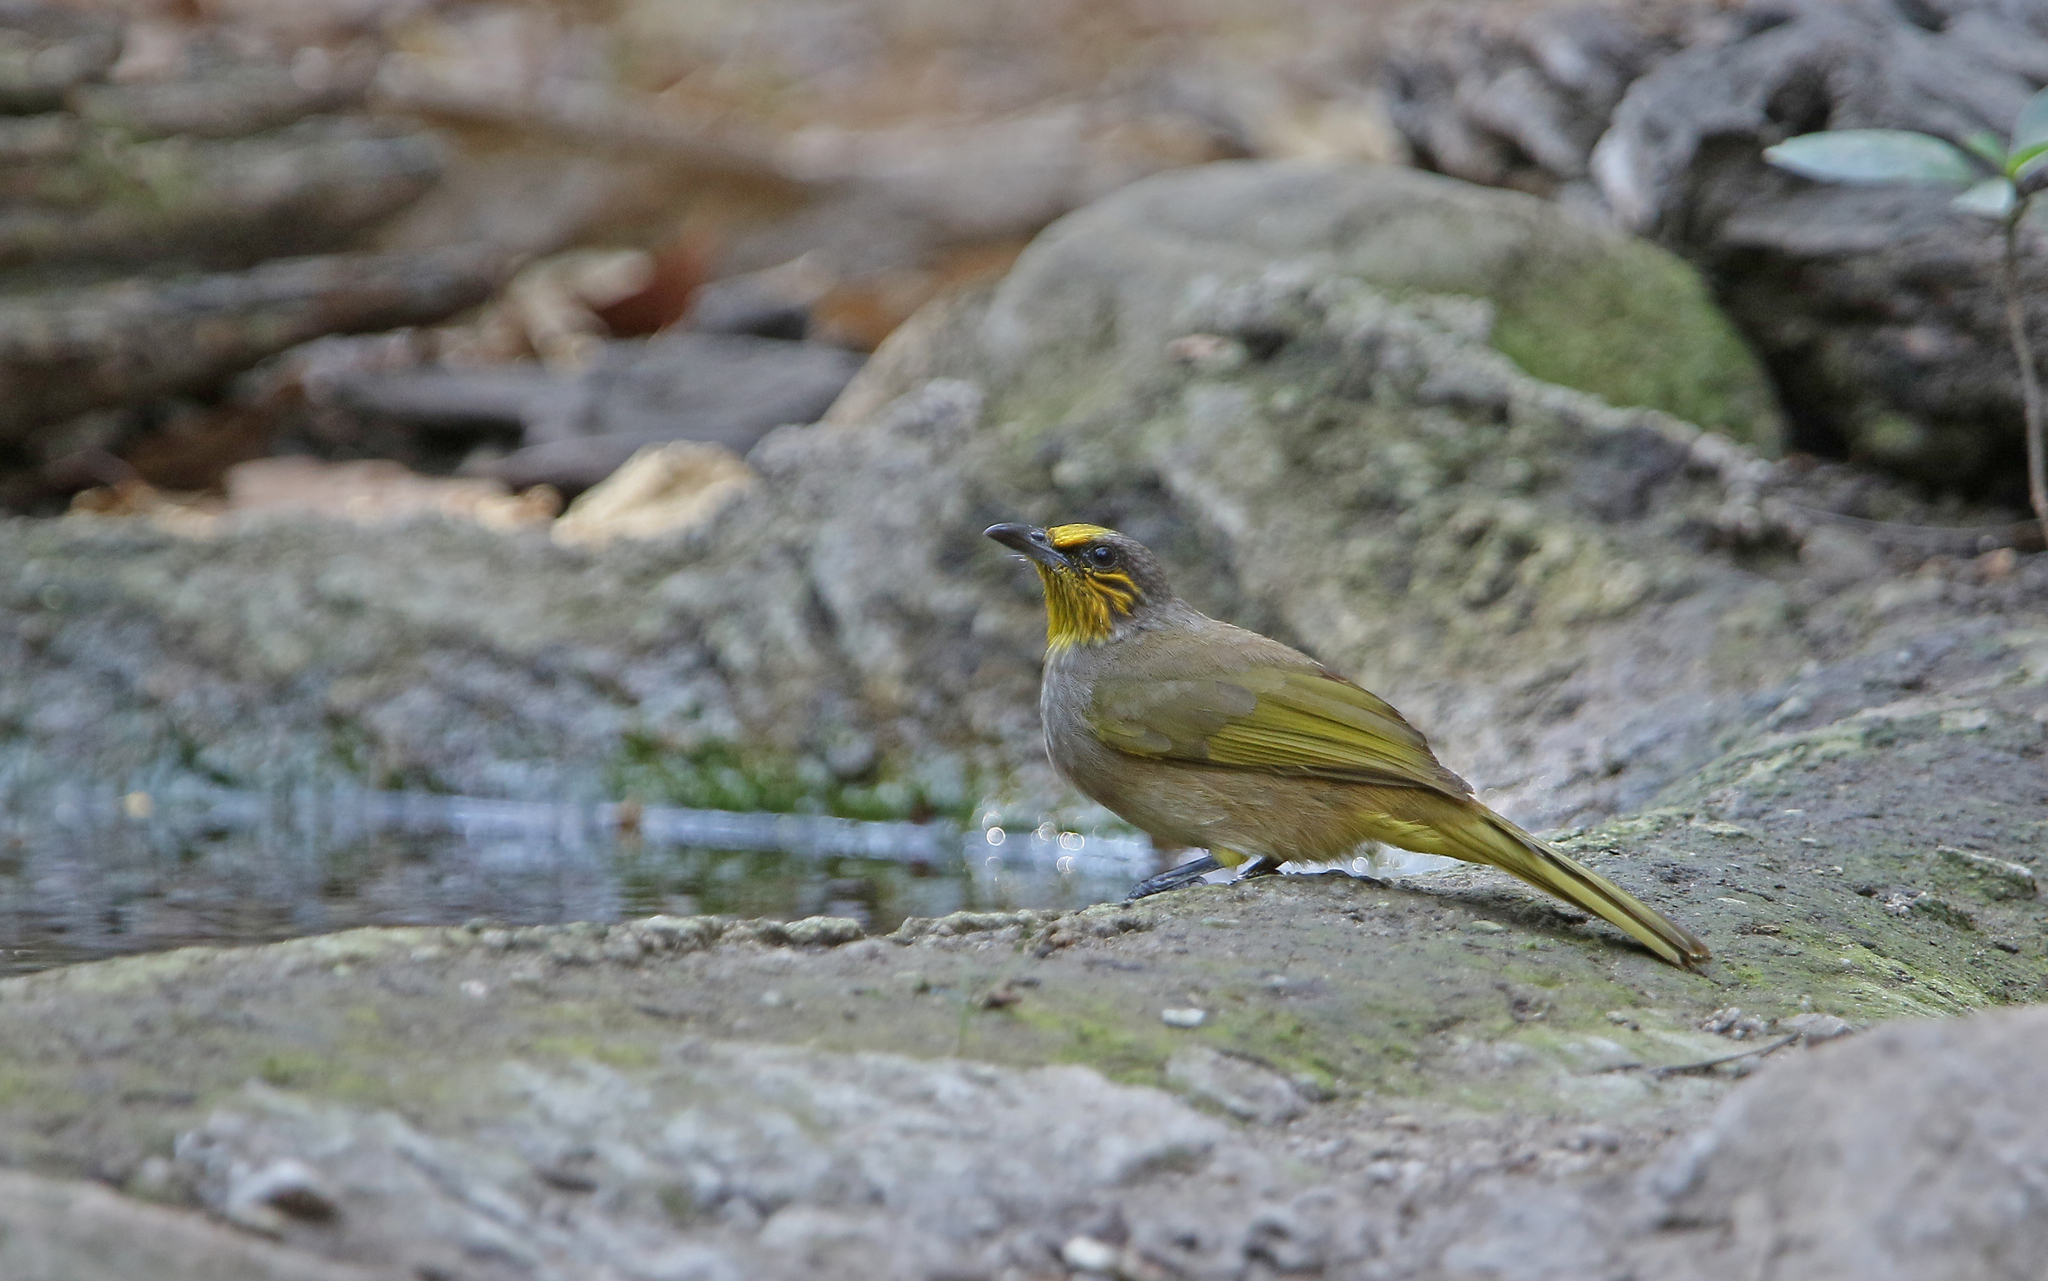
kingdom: Animalia
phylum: Chordata
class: Aves
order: Passeriformes
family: Pycnonotidae
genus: Pycnonotus
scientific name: Pycnonotus finlaysoni
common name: Stripe-throated bulbul
